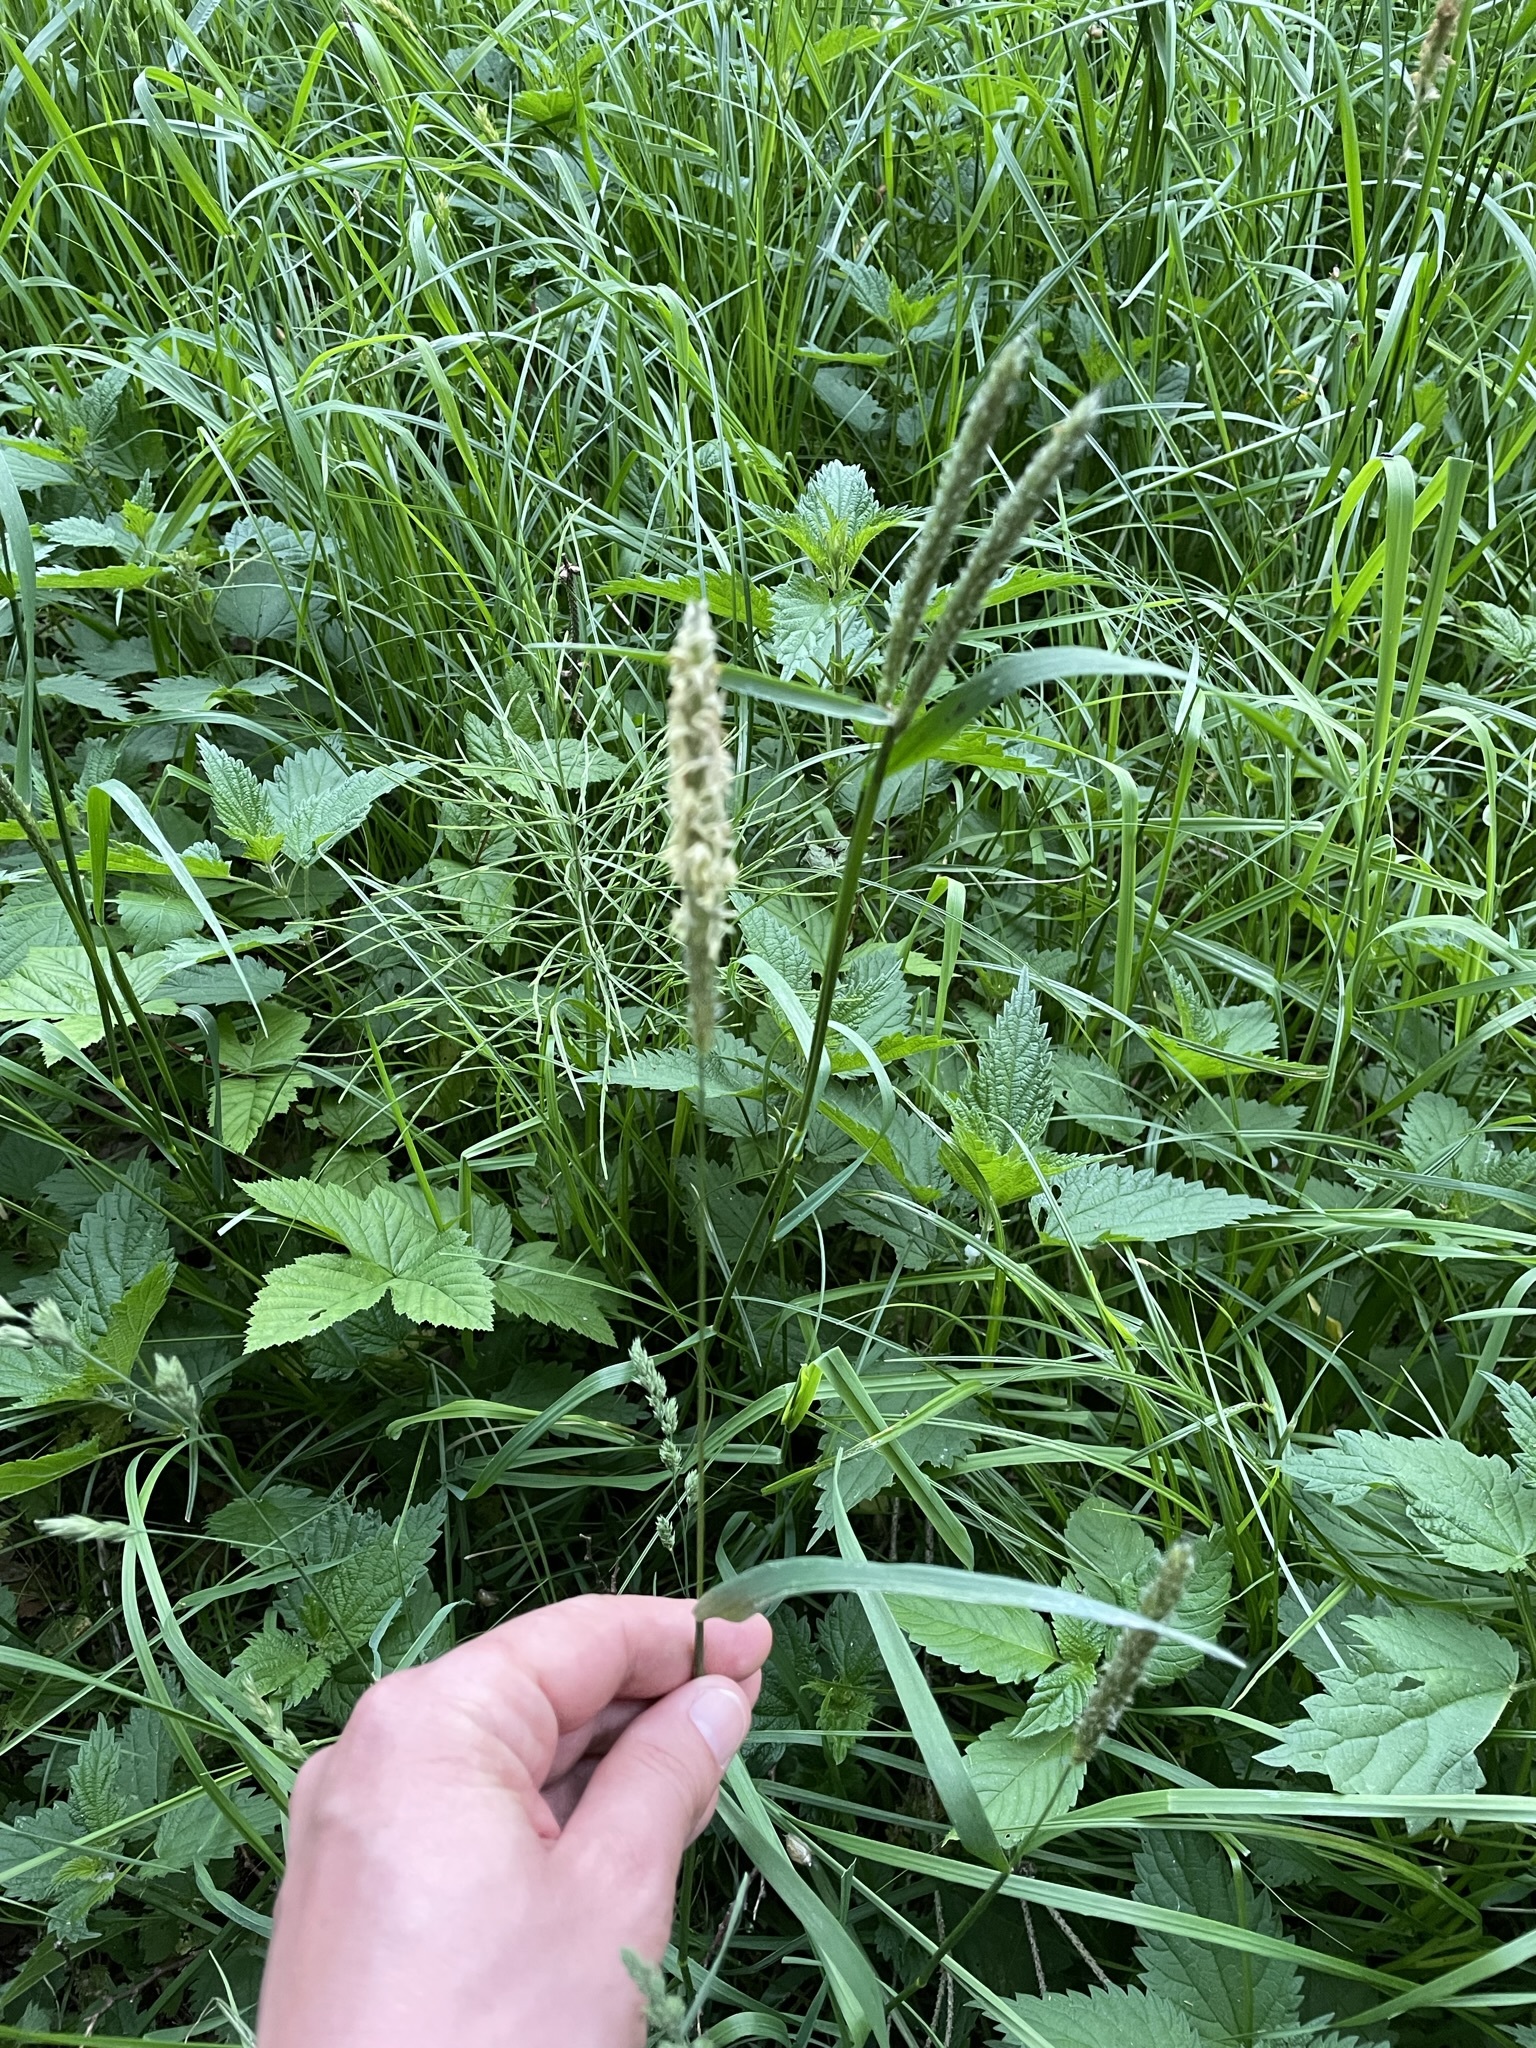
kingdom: Plantae
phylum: Tracheophyta
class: Liliopsida
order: Poales
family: Poaceae
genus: Alopecurus
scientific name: Alopecurus pratensis
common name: Meadow foxtail
